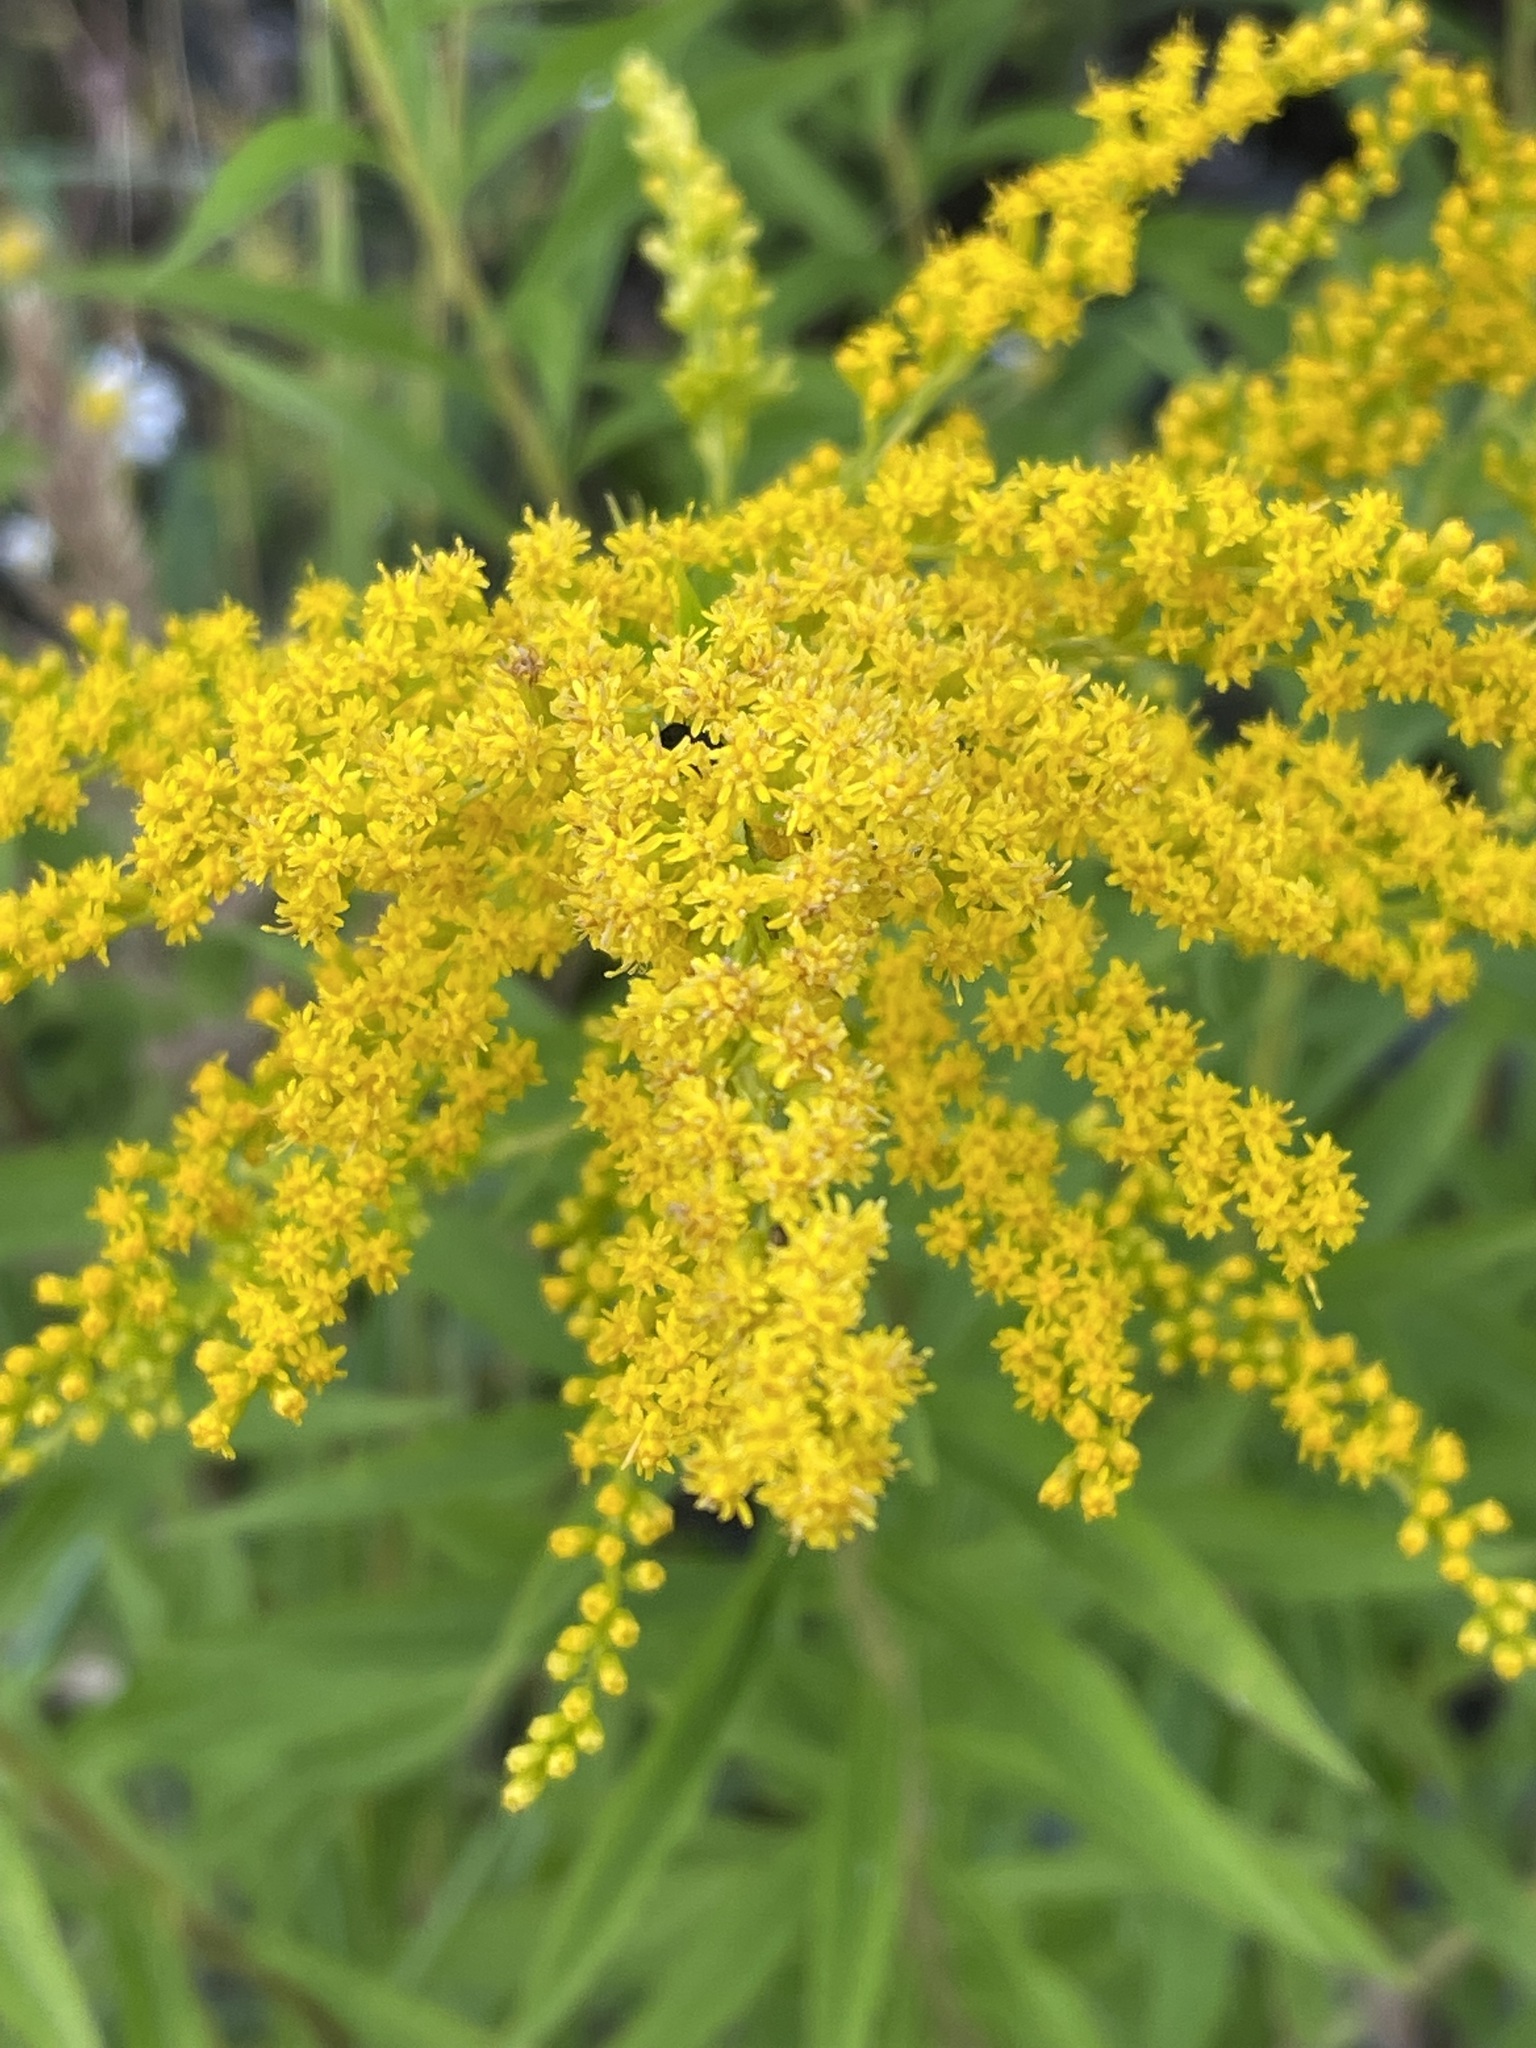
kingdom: Plantae
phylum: Tracheophyta
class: Magnoliopsida
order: Asterales
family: Asteraceae
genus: Solidago
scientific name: Solidago canadensis
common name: Canada goldenrod
